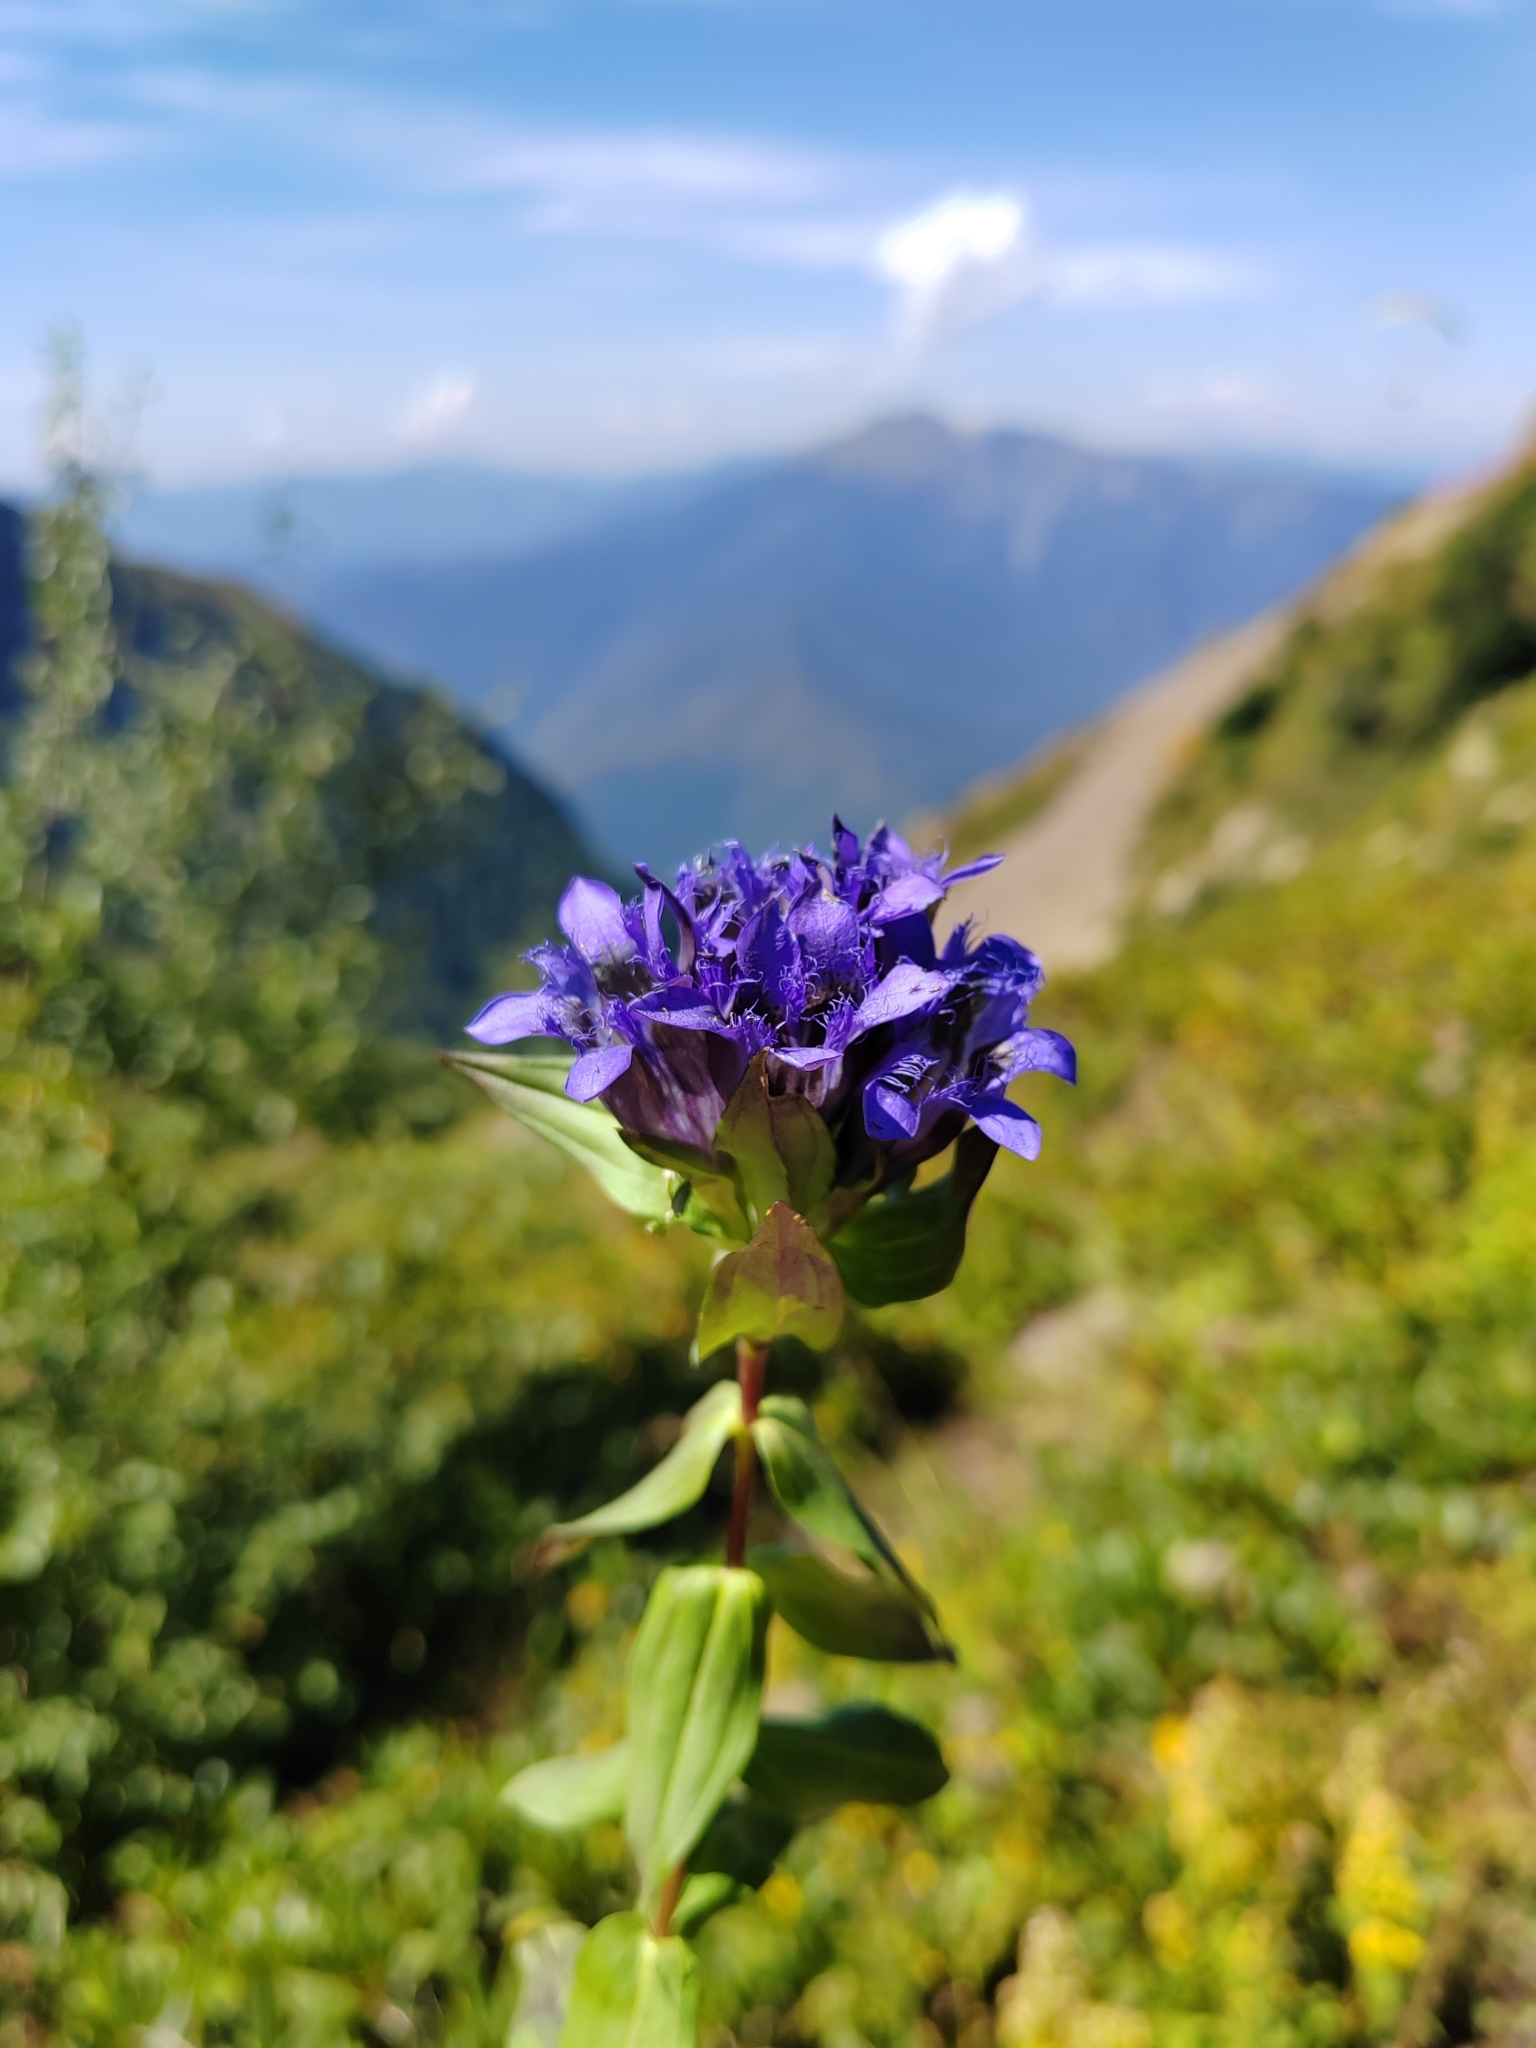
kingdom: Plantae
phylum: Tracheophyta
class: Magnoliopsida
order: Gentianales
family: Gentianaceae
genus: Gentiana
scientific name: Gentiana septemfida
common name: Crested gentian
